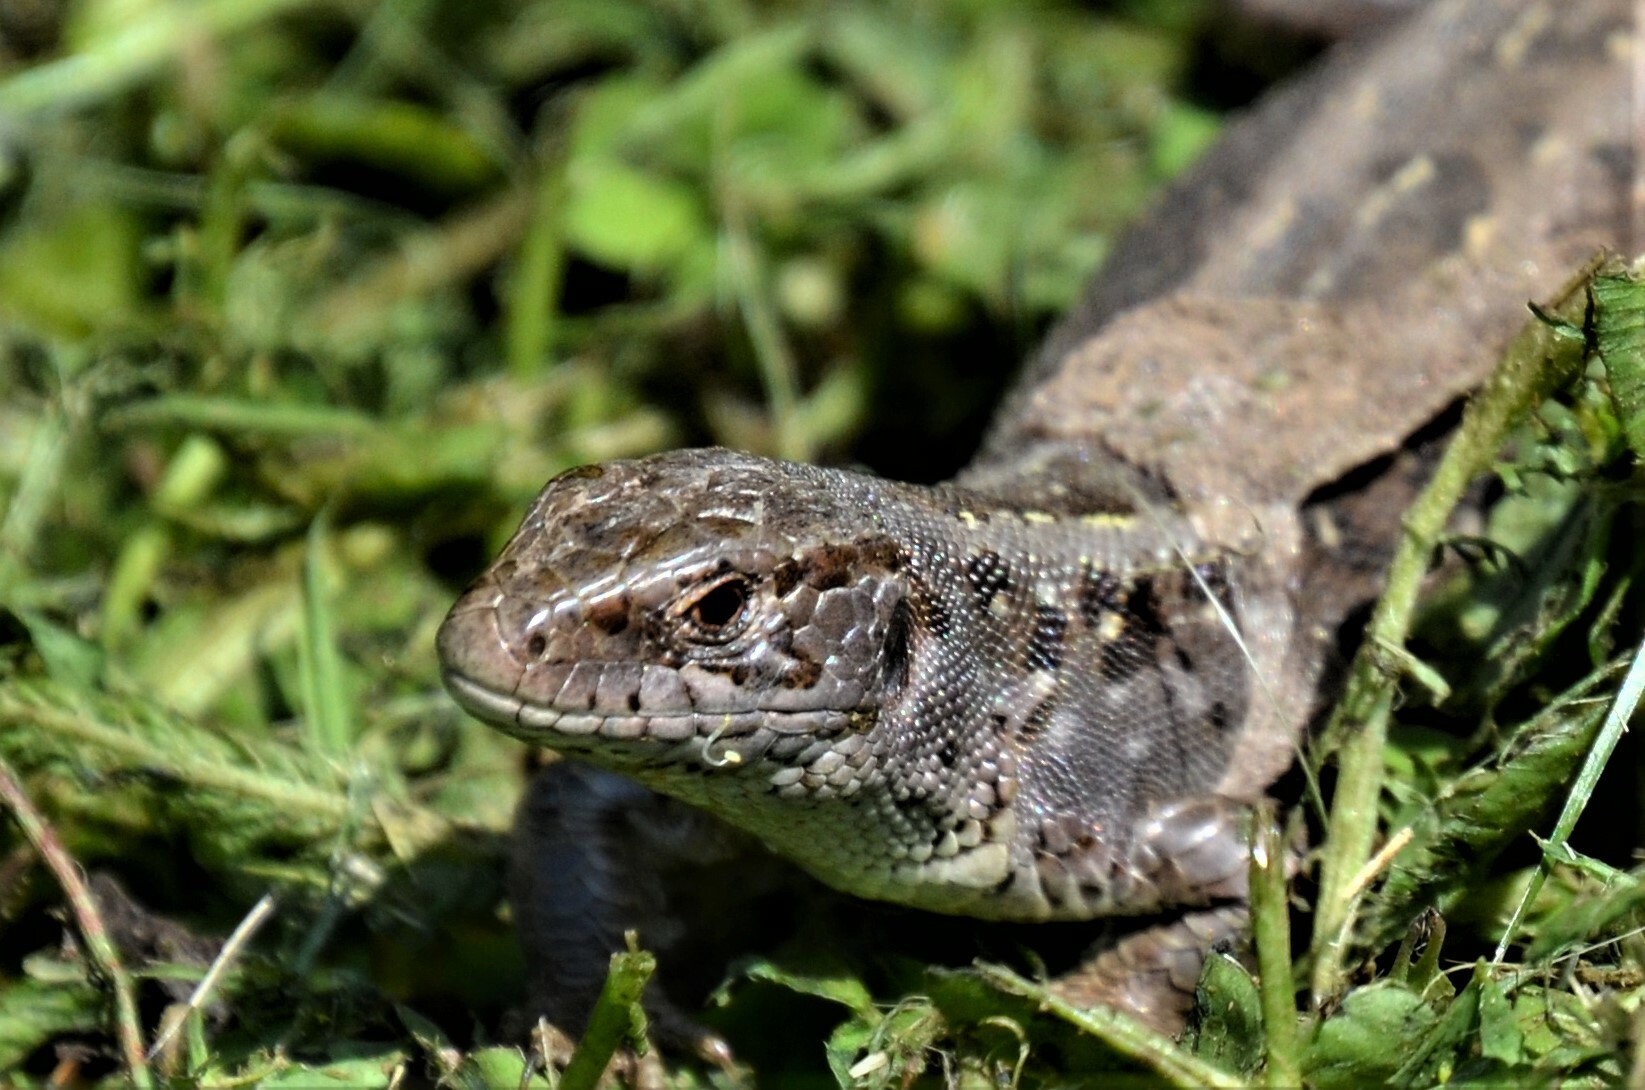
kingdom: Animalia
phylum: Chordata
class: Squamata
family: Lacertidae
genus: Lacerta
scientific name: Lacerta agilis
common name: Sand lizard
